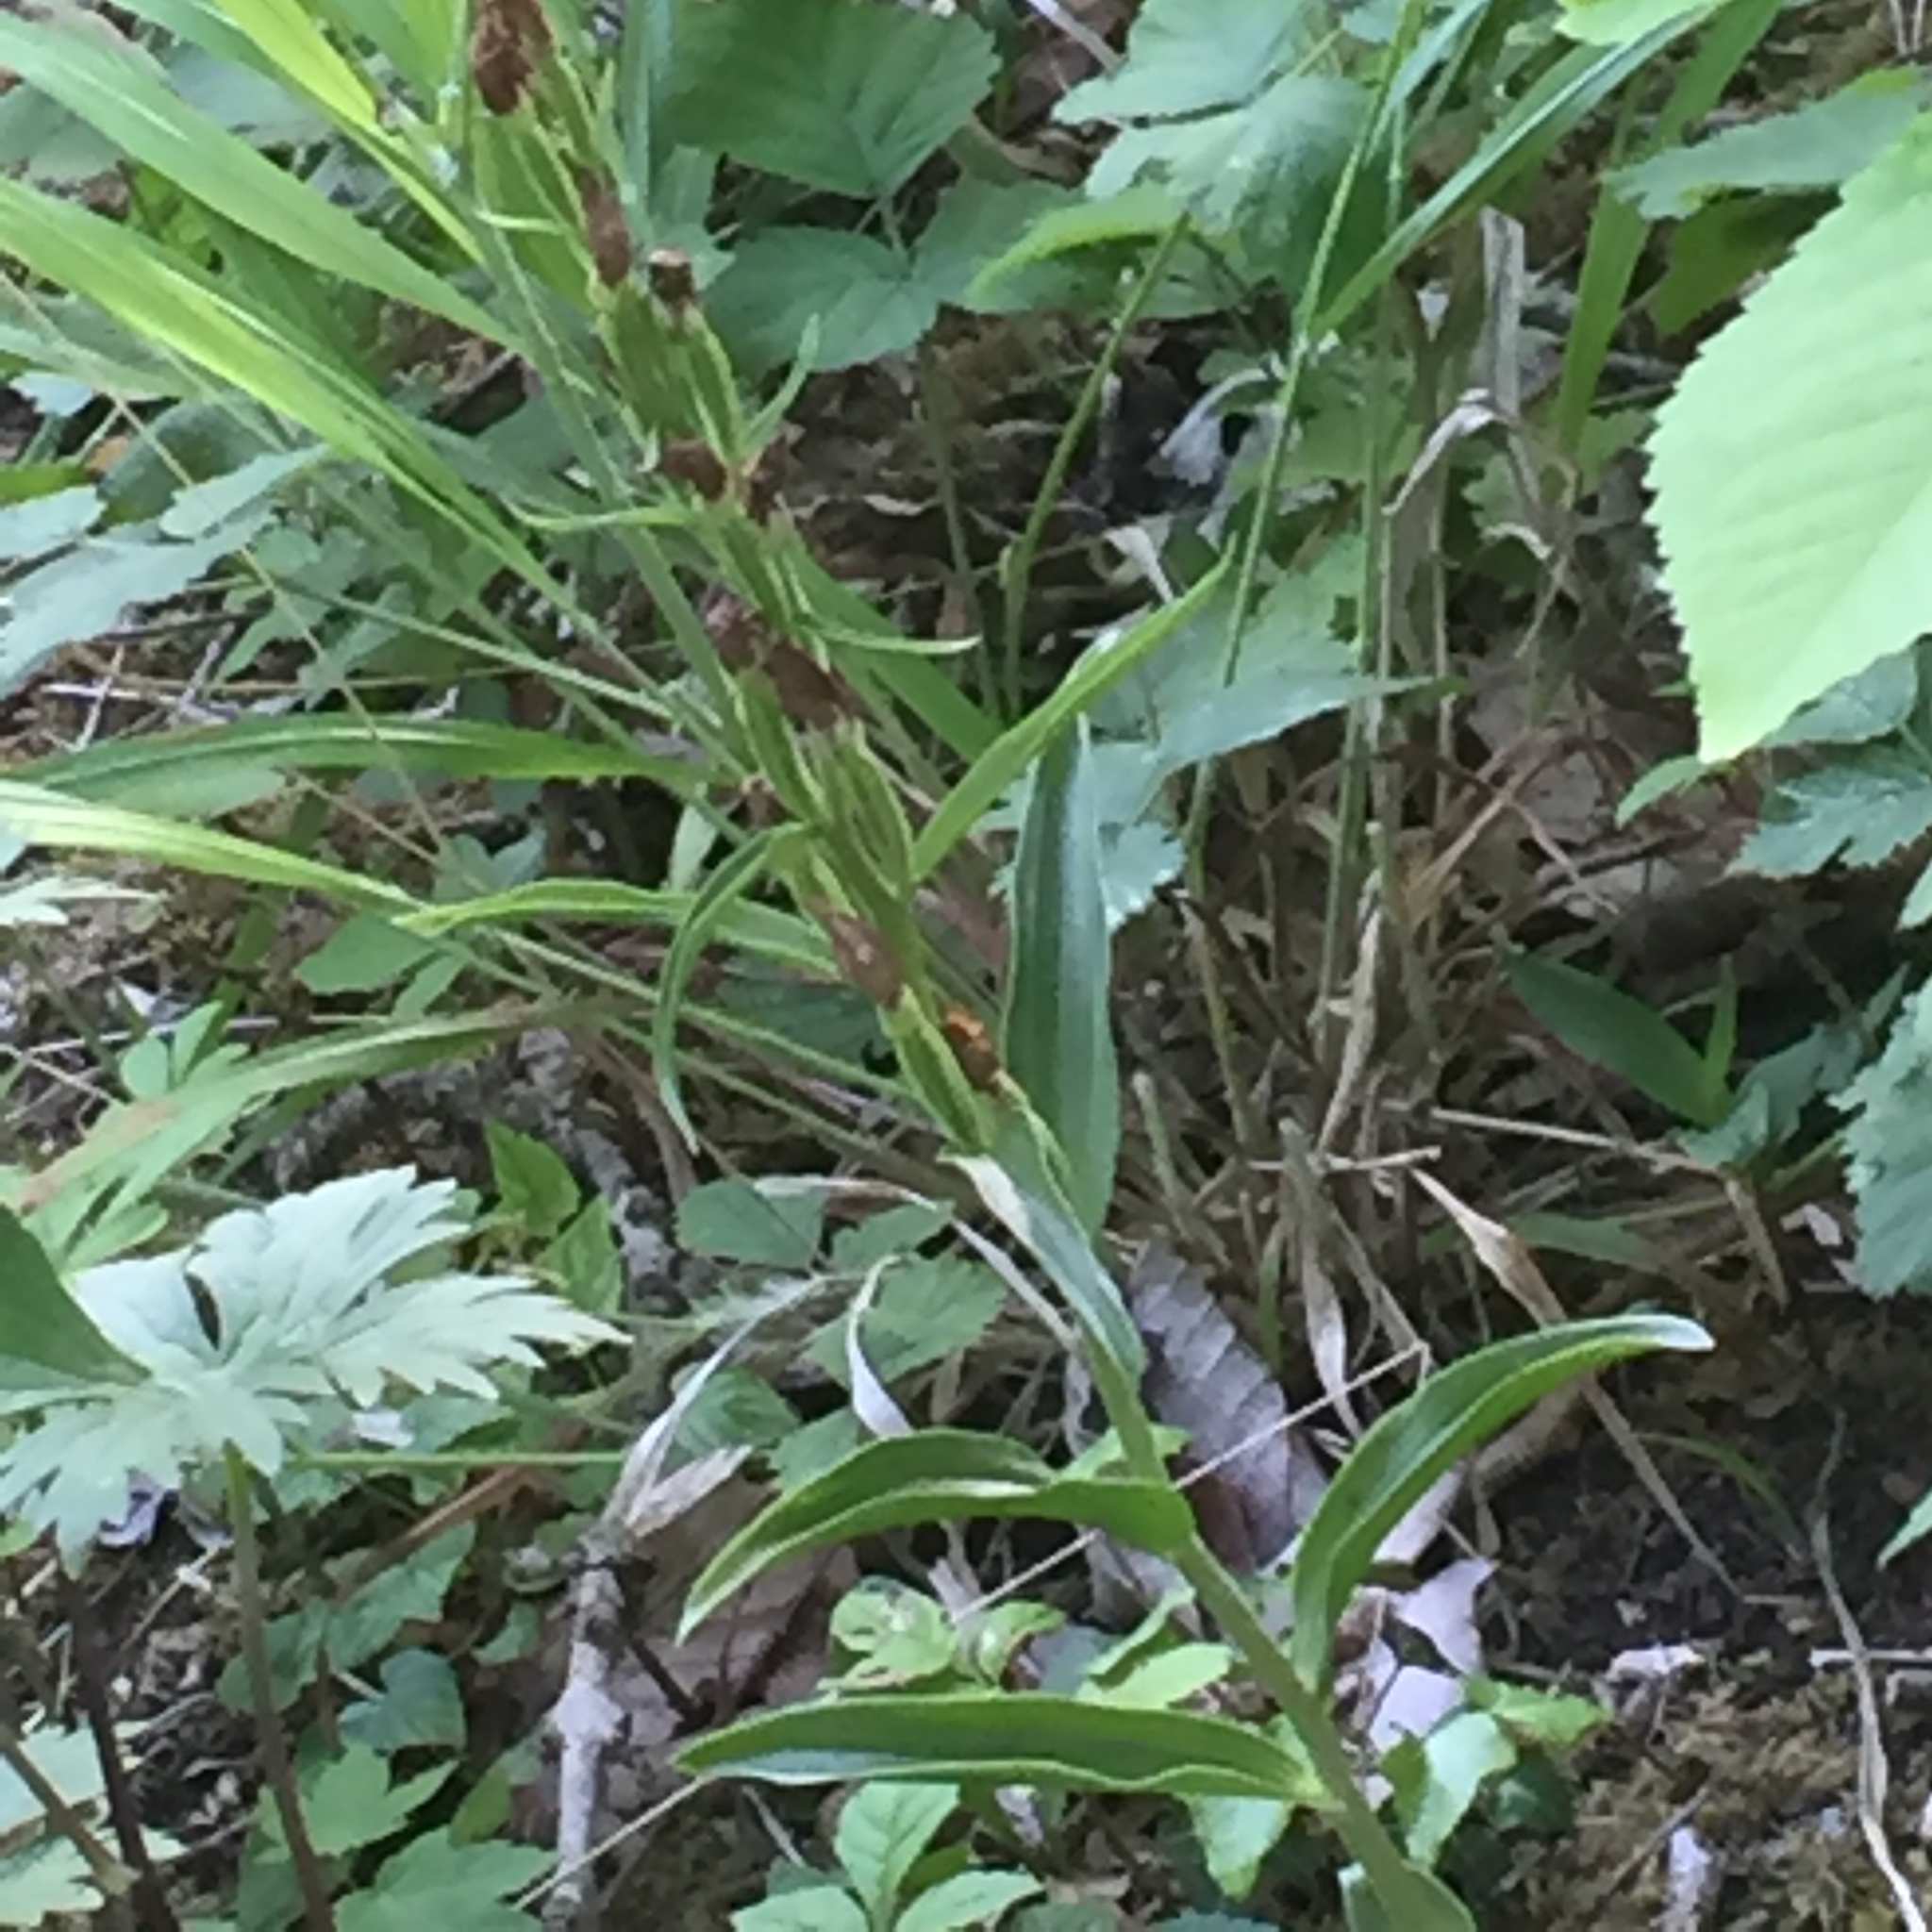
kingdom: Plantae
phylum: Tracheophyta
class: Liliopsida
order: Asparagales
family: Orchidaceae
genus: Cephalanthera
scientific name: Cephalanthera damasonium
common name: White helleborine
